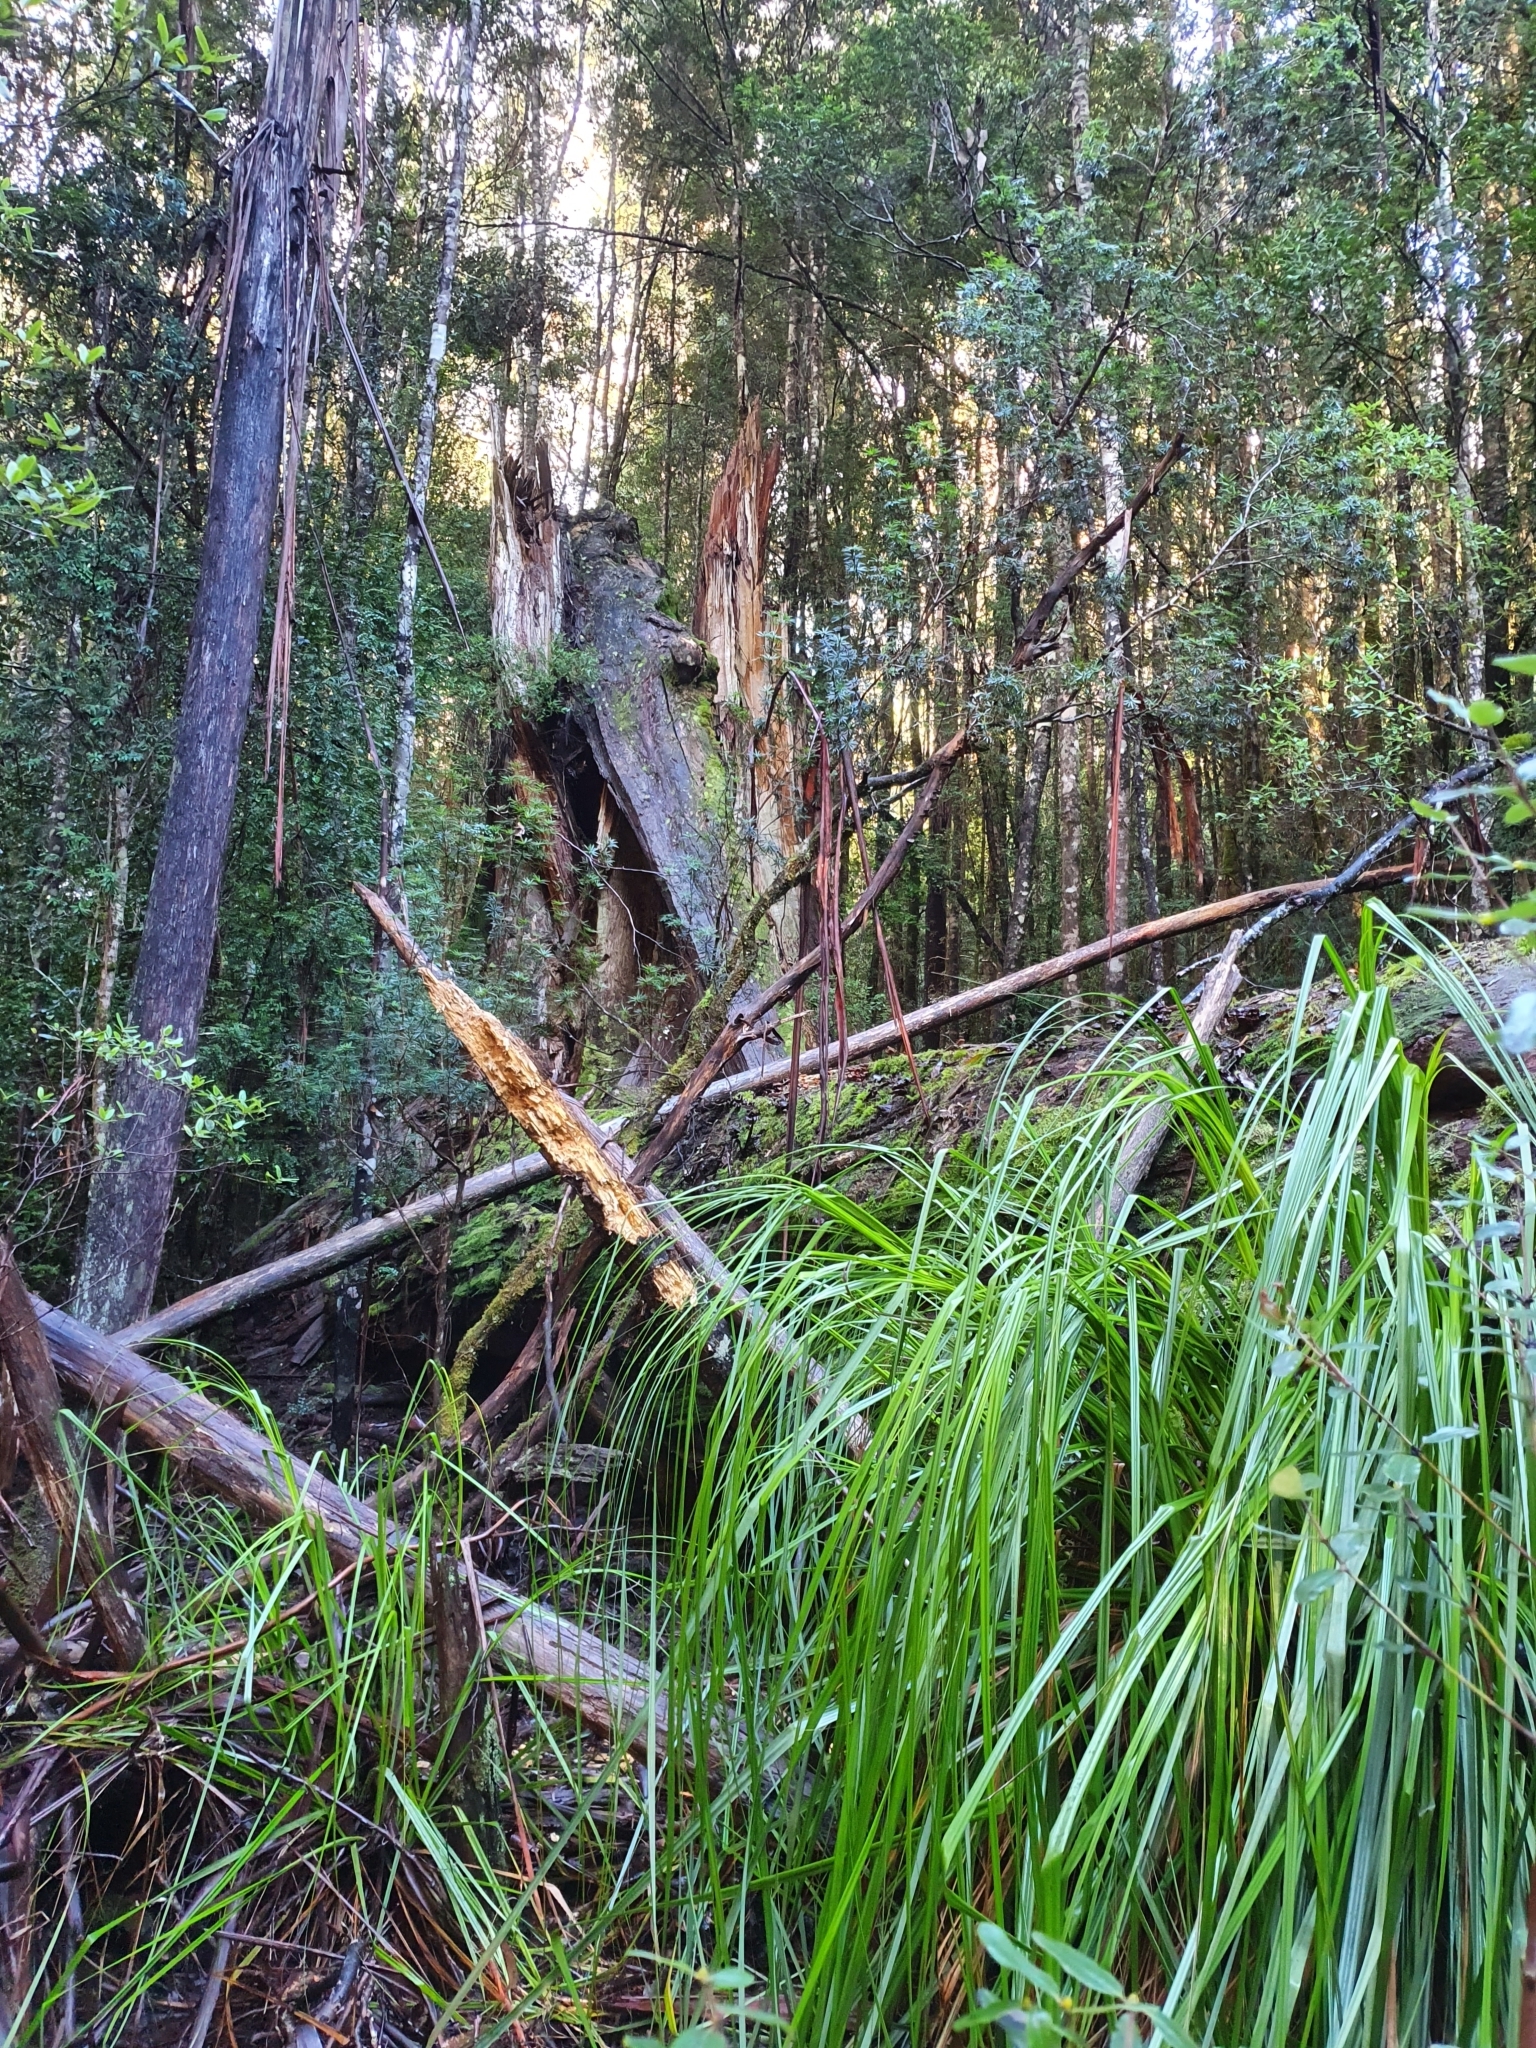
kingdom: Plantae
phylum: Tracheophyta
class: Liliopsida
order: Poales
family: Cyperaceae
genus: Gahnia
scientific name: Gahnia grandis
